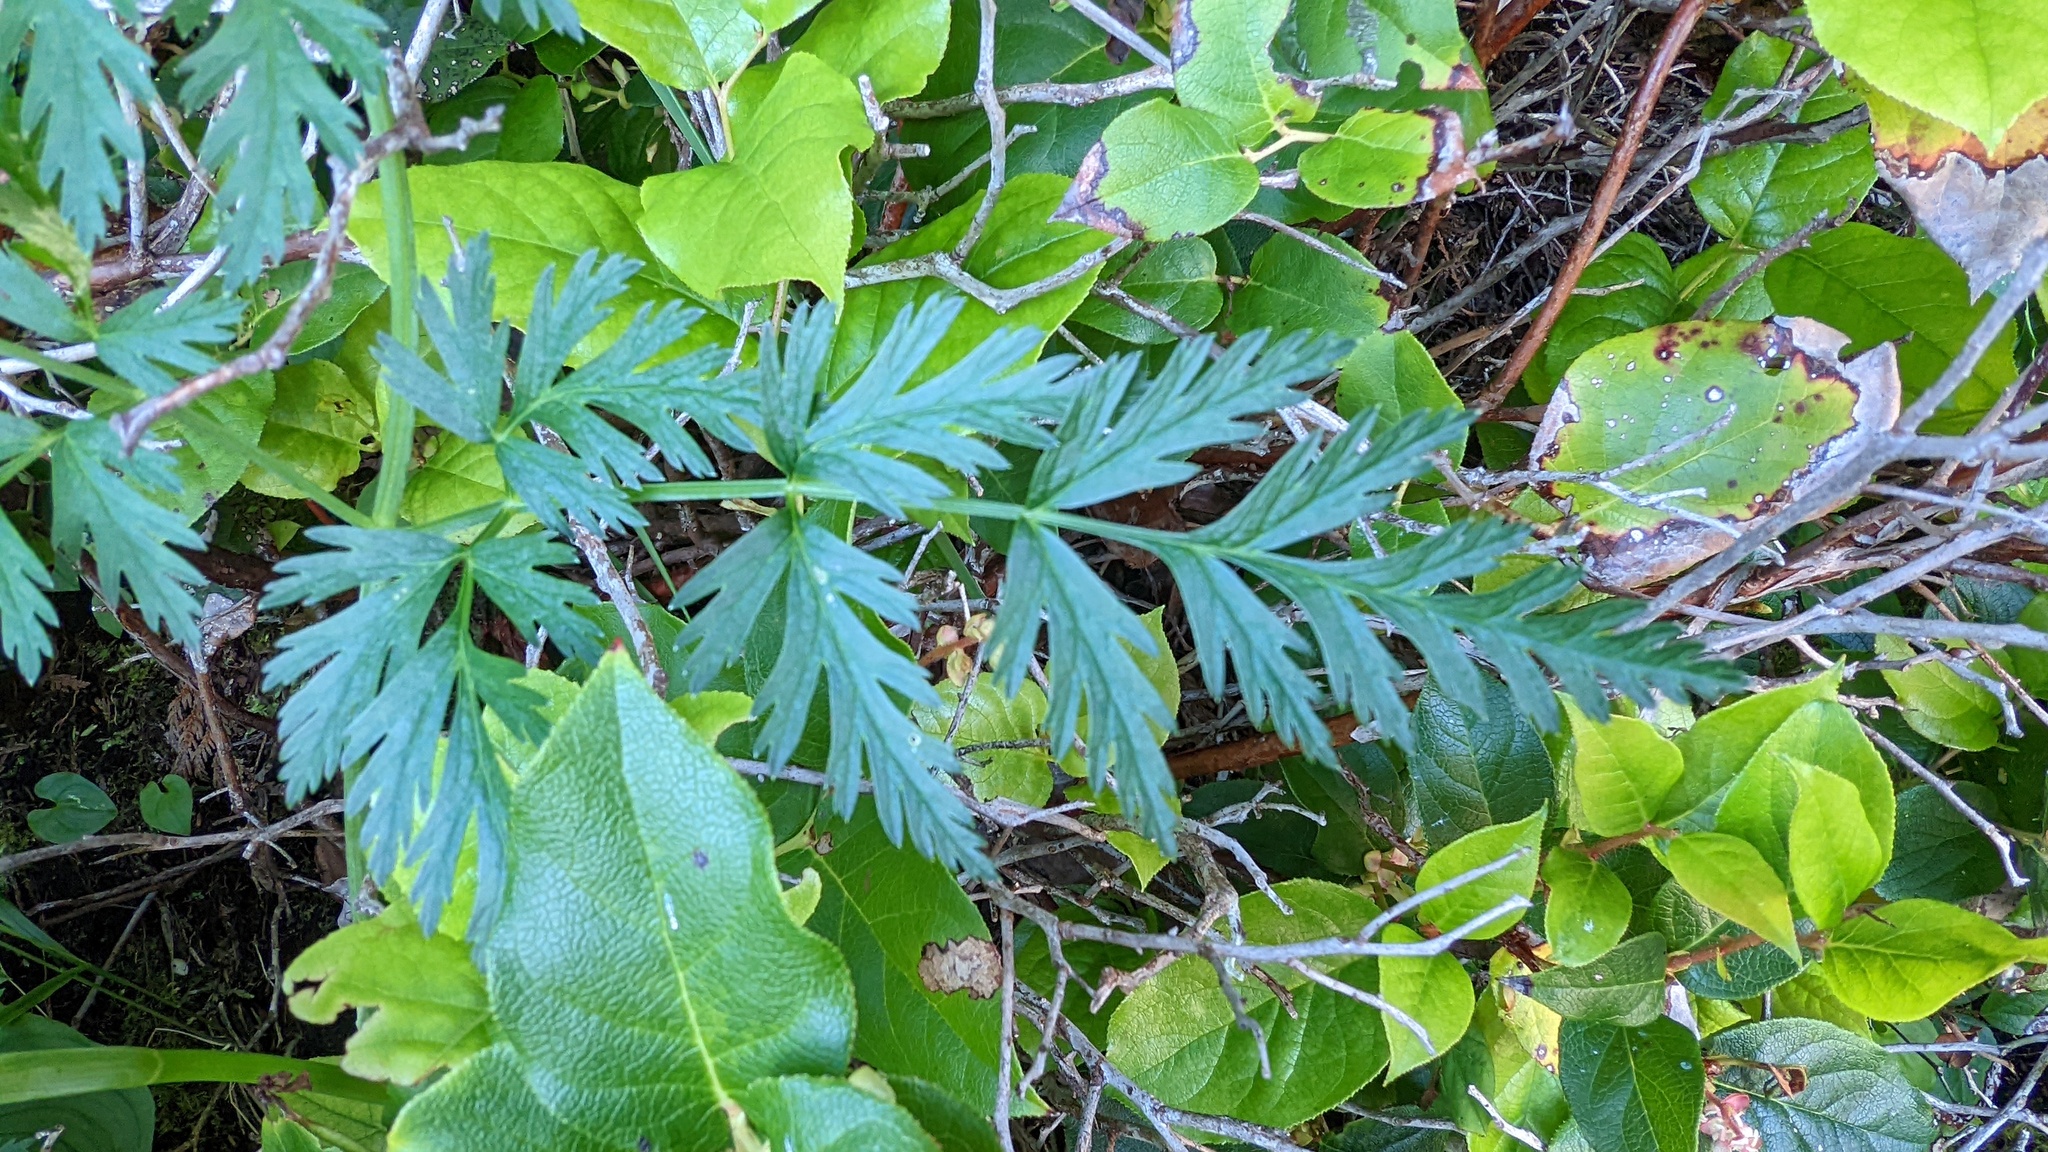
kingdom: Plantae
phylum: Tracheophyta
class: Magnoliopsida
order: Apiales
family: Apiaceae
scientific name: Apiaceae
